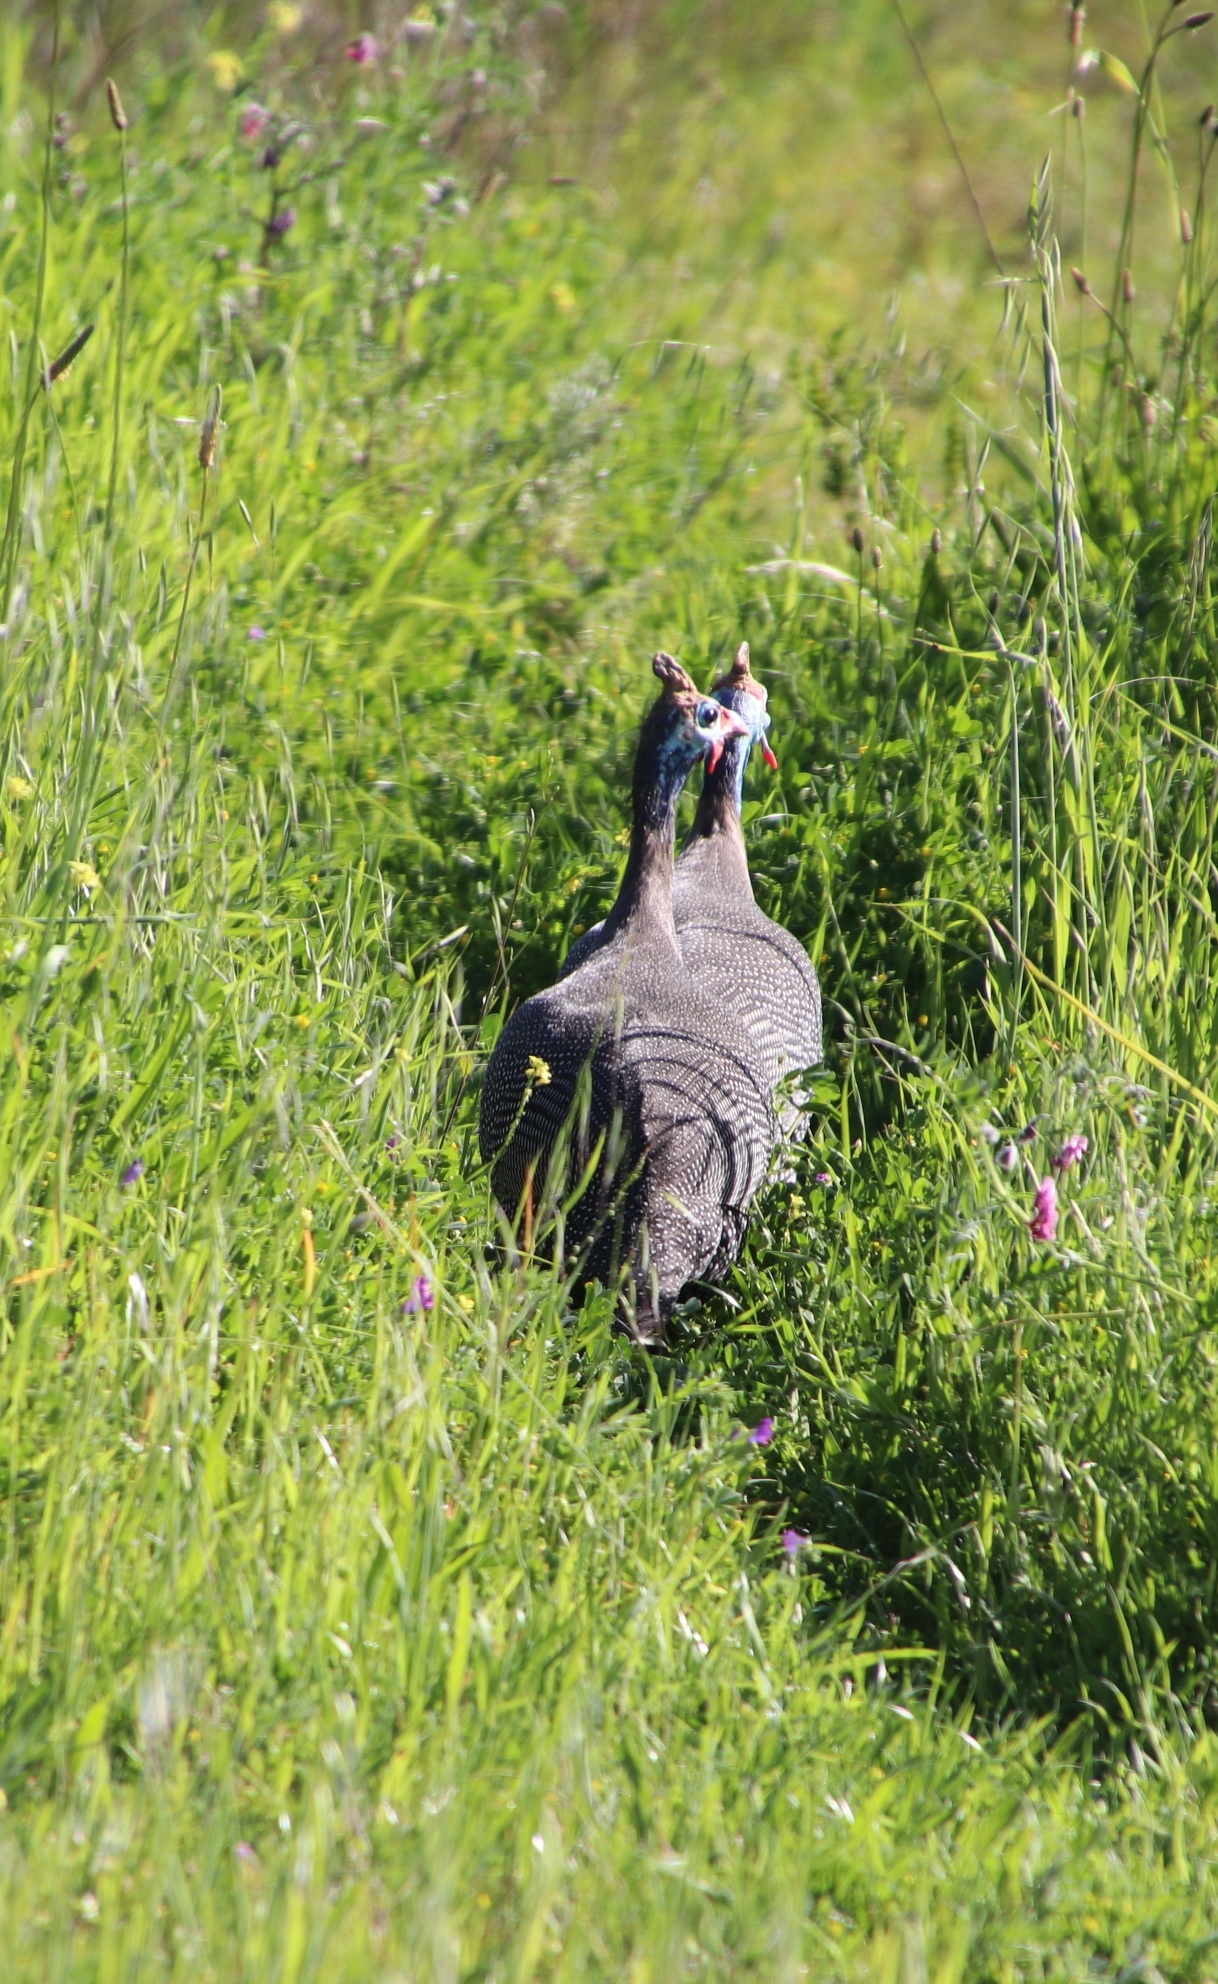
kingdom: Animalia
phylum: Chordata
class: Aves
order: Galliformes
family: Numididae
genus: Numida
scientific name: Numida meleagris
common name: Helmeted guineafowl
